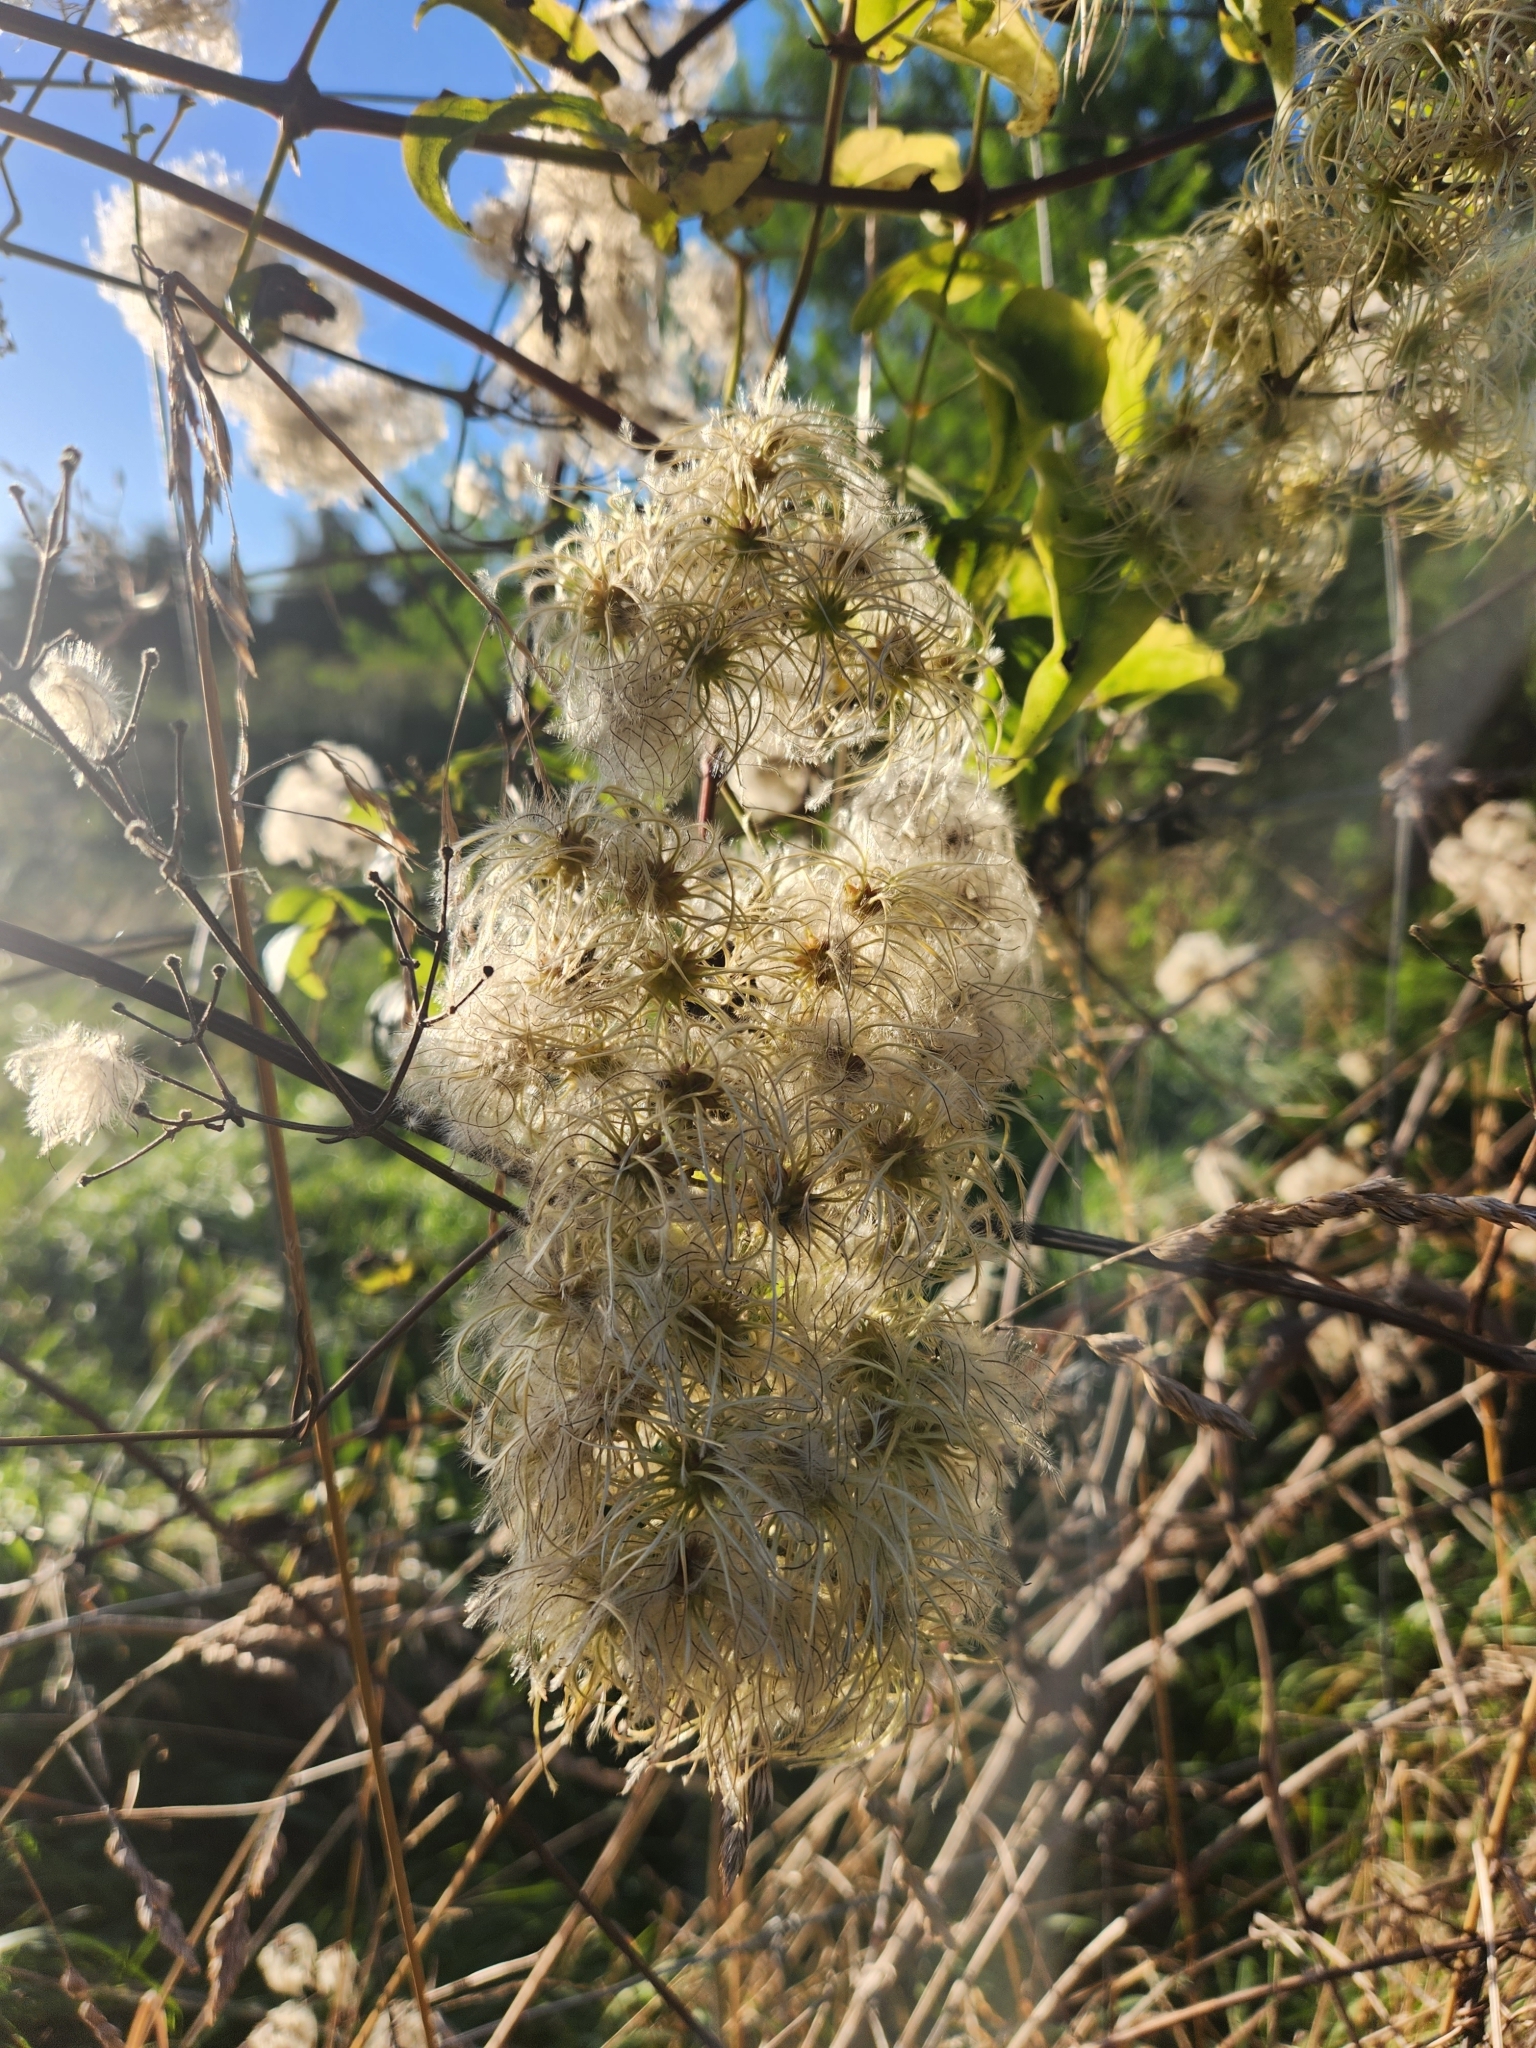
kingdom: Plantae
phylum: Tracheophyta
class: Magnoliopsida
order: Ranunculales
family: Ranunculaceae
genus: Clematis
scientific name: Clematis vitalba
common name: Evergreen clematis
